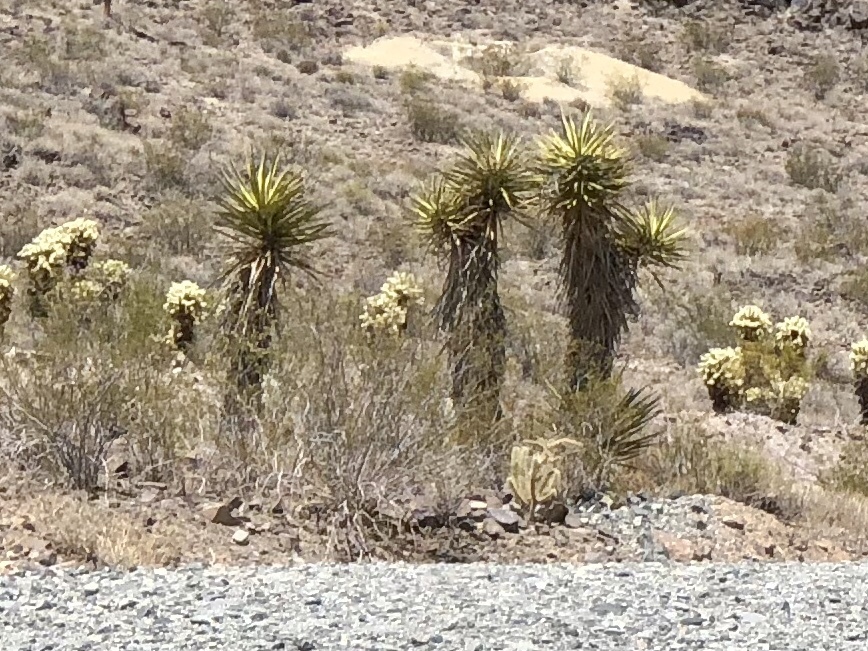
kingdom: Plantae
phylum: Tracheophyta
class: Liliopsida
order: Asparagales
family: Asparagaceae
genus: Yucca
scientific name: Yucca schidigera
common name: Mojave yucca
